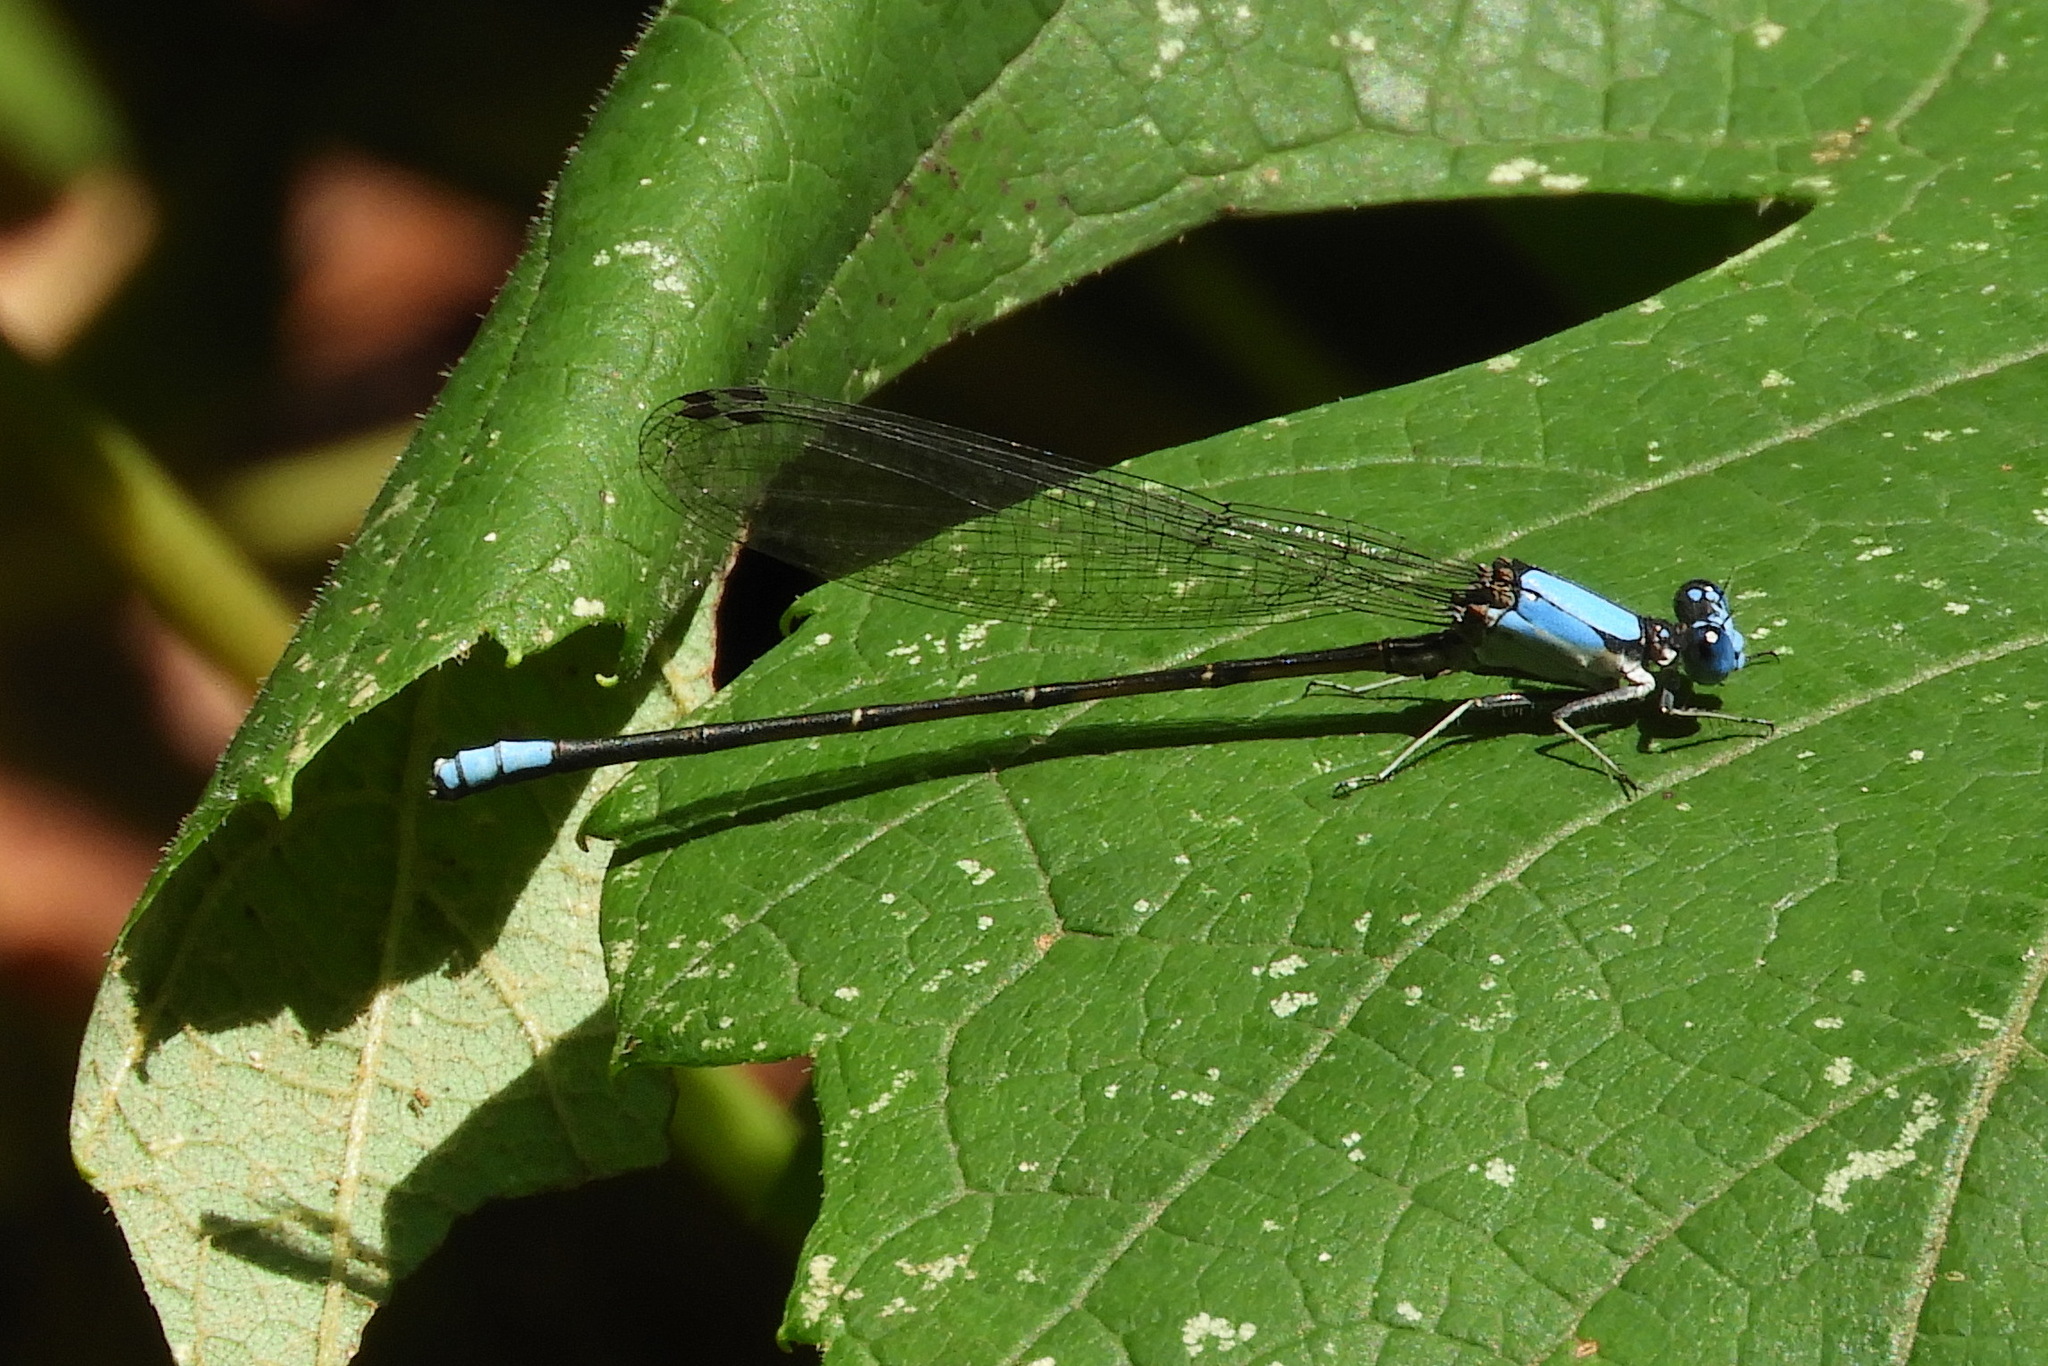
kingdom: Animalia
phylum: Arthropoda
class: Insecta
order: Odonata
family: Coenagrionidae
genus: Argia
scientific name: Argia apicalis
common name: Blue-fronted dancer
